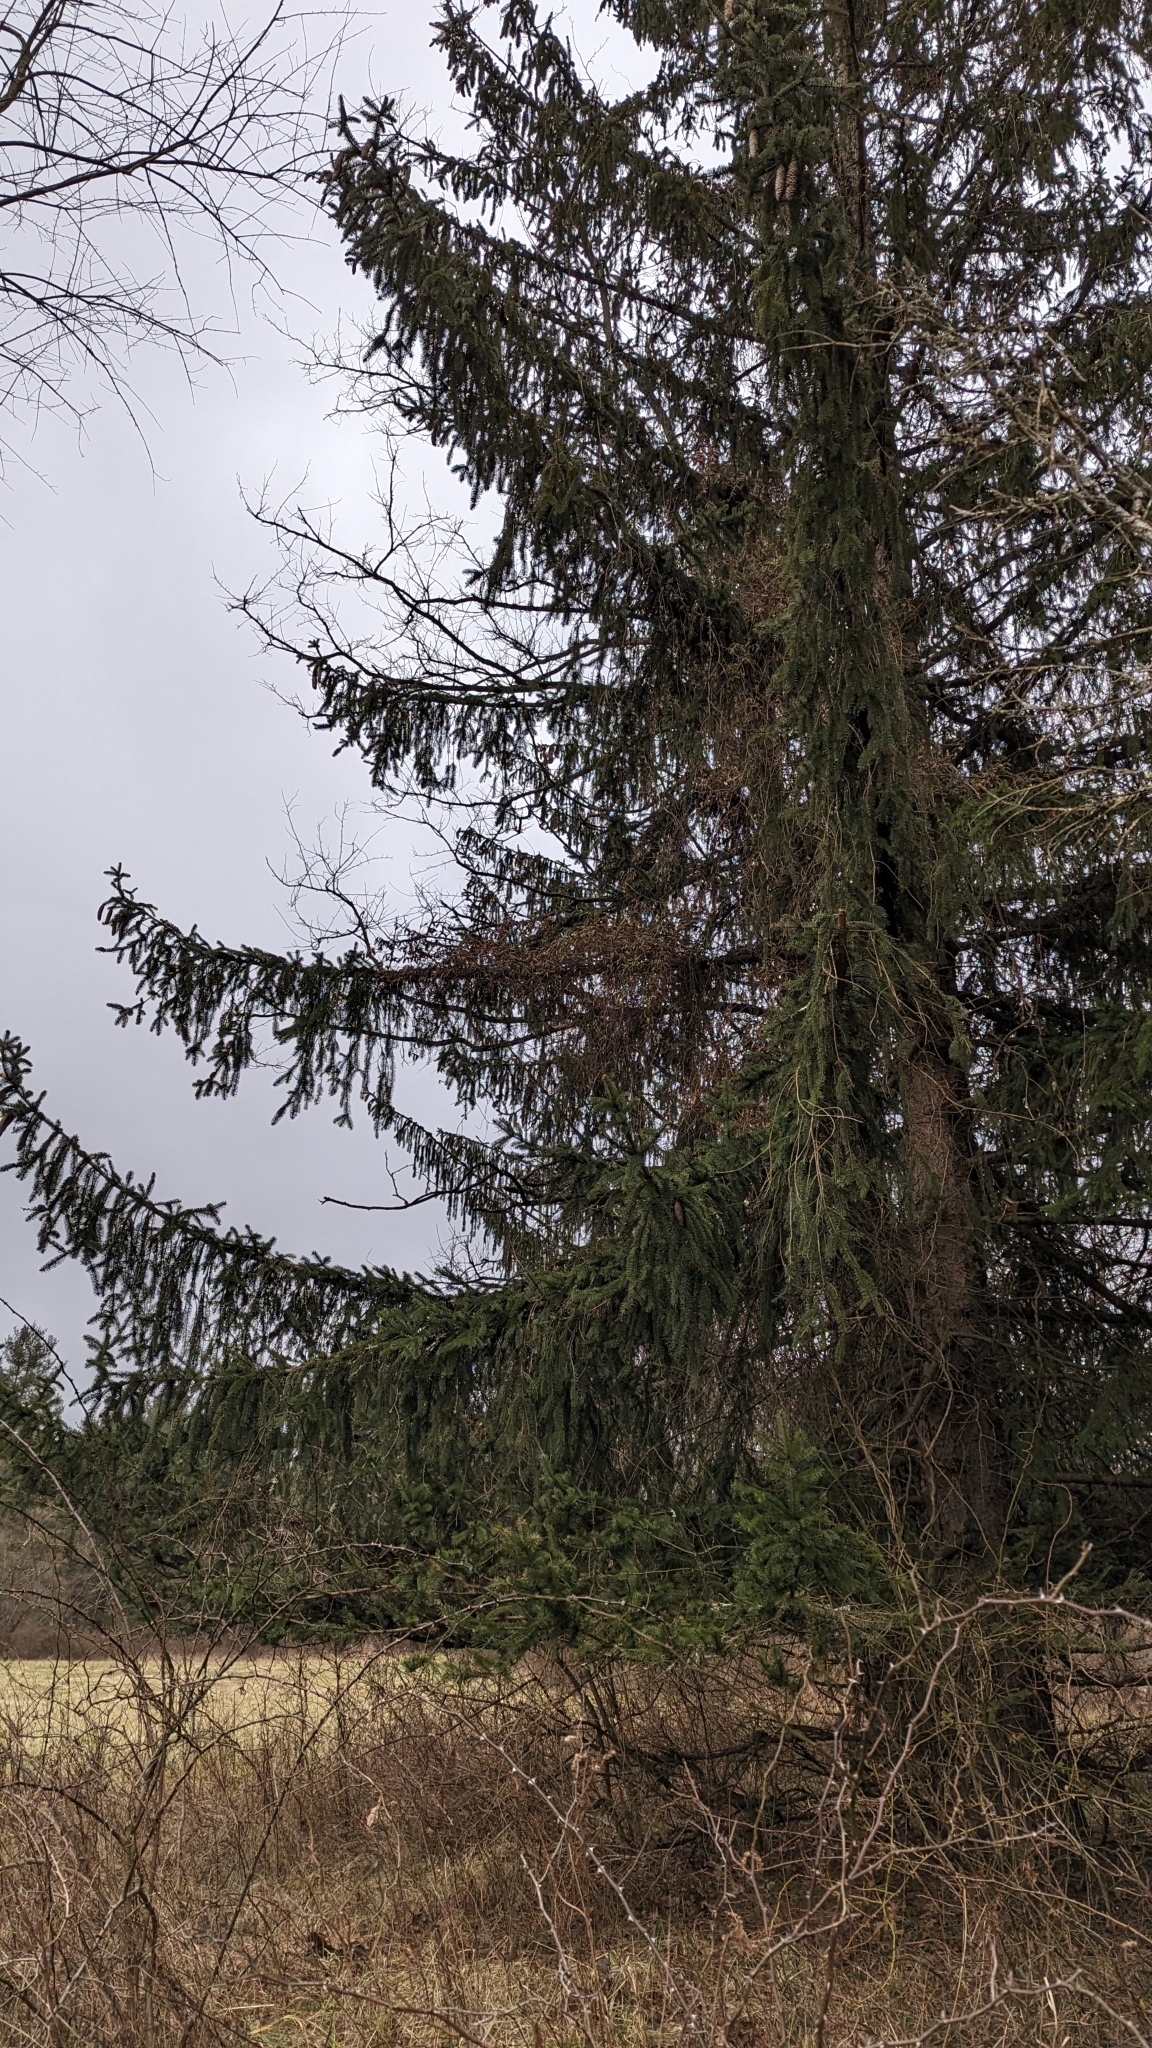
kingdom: Plantae
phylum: Tracheophyta
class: Pinopsida
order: Pinales
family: Pinaceae
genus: Picea
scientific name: Picea abies
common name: Norway spruce
